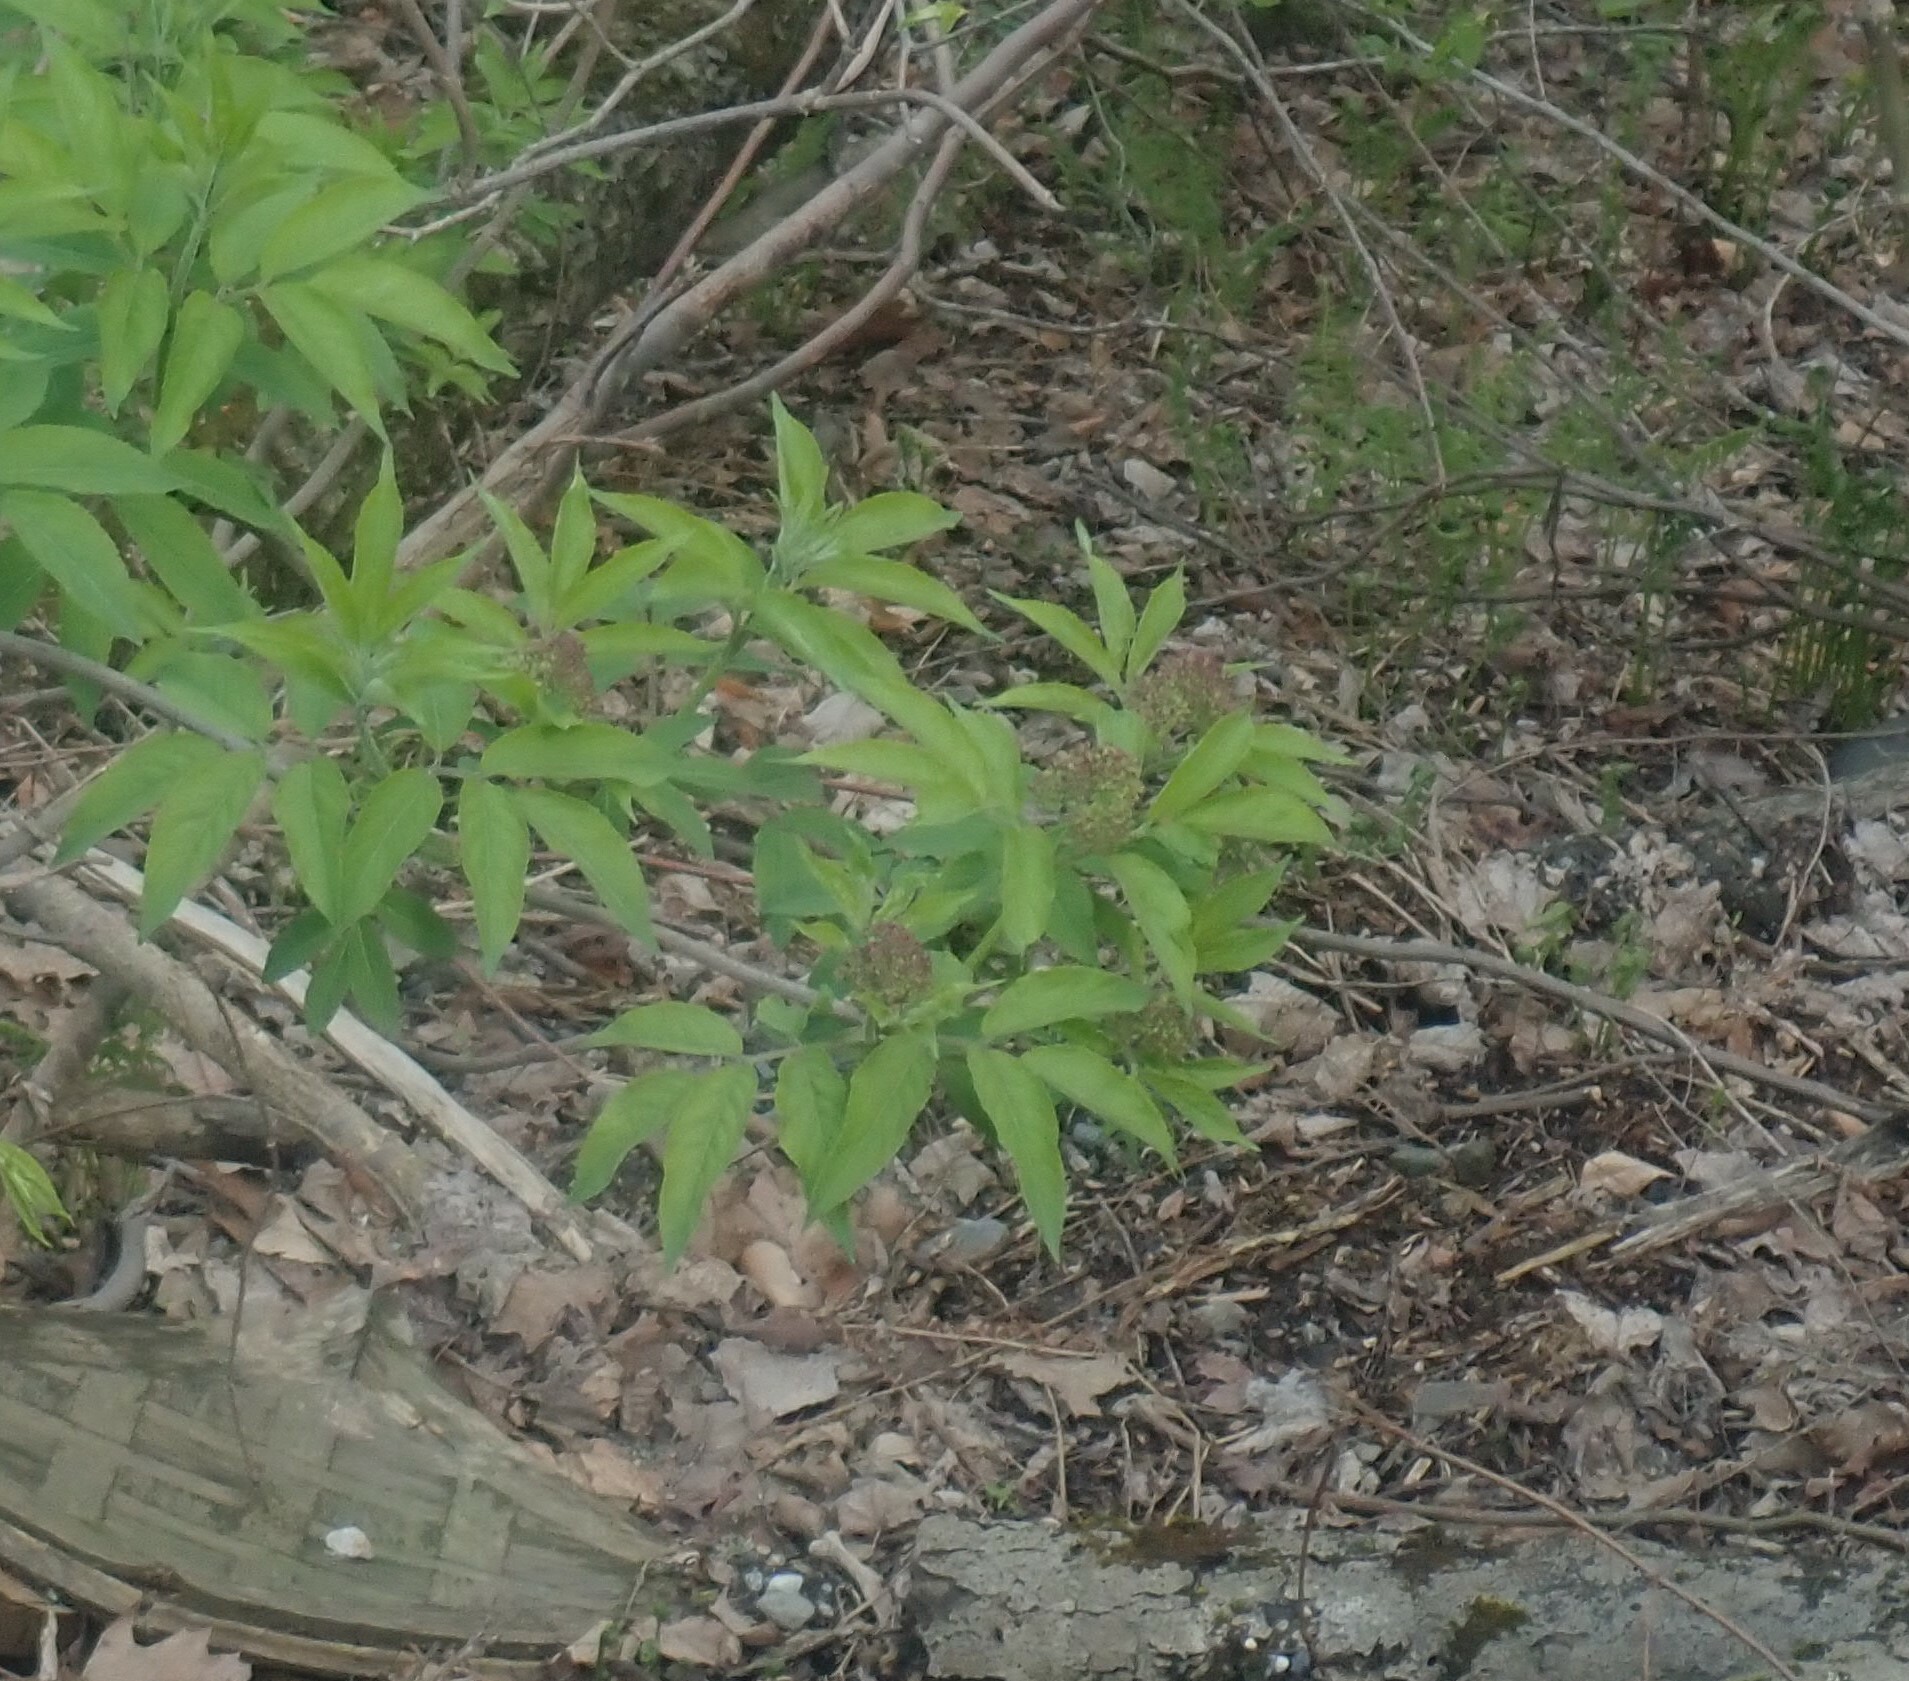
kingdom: Plantae
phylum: Tracheophyta
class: Magnoliopsida
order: Dipsacales
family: Viburnaceae
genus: Sambucus
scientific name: Sambucus racemosa
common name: Red-berried elder
